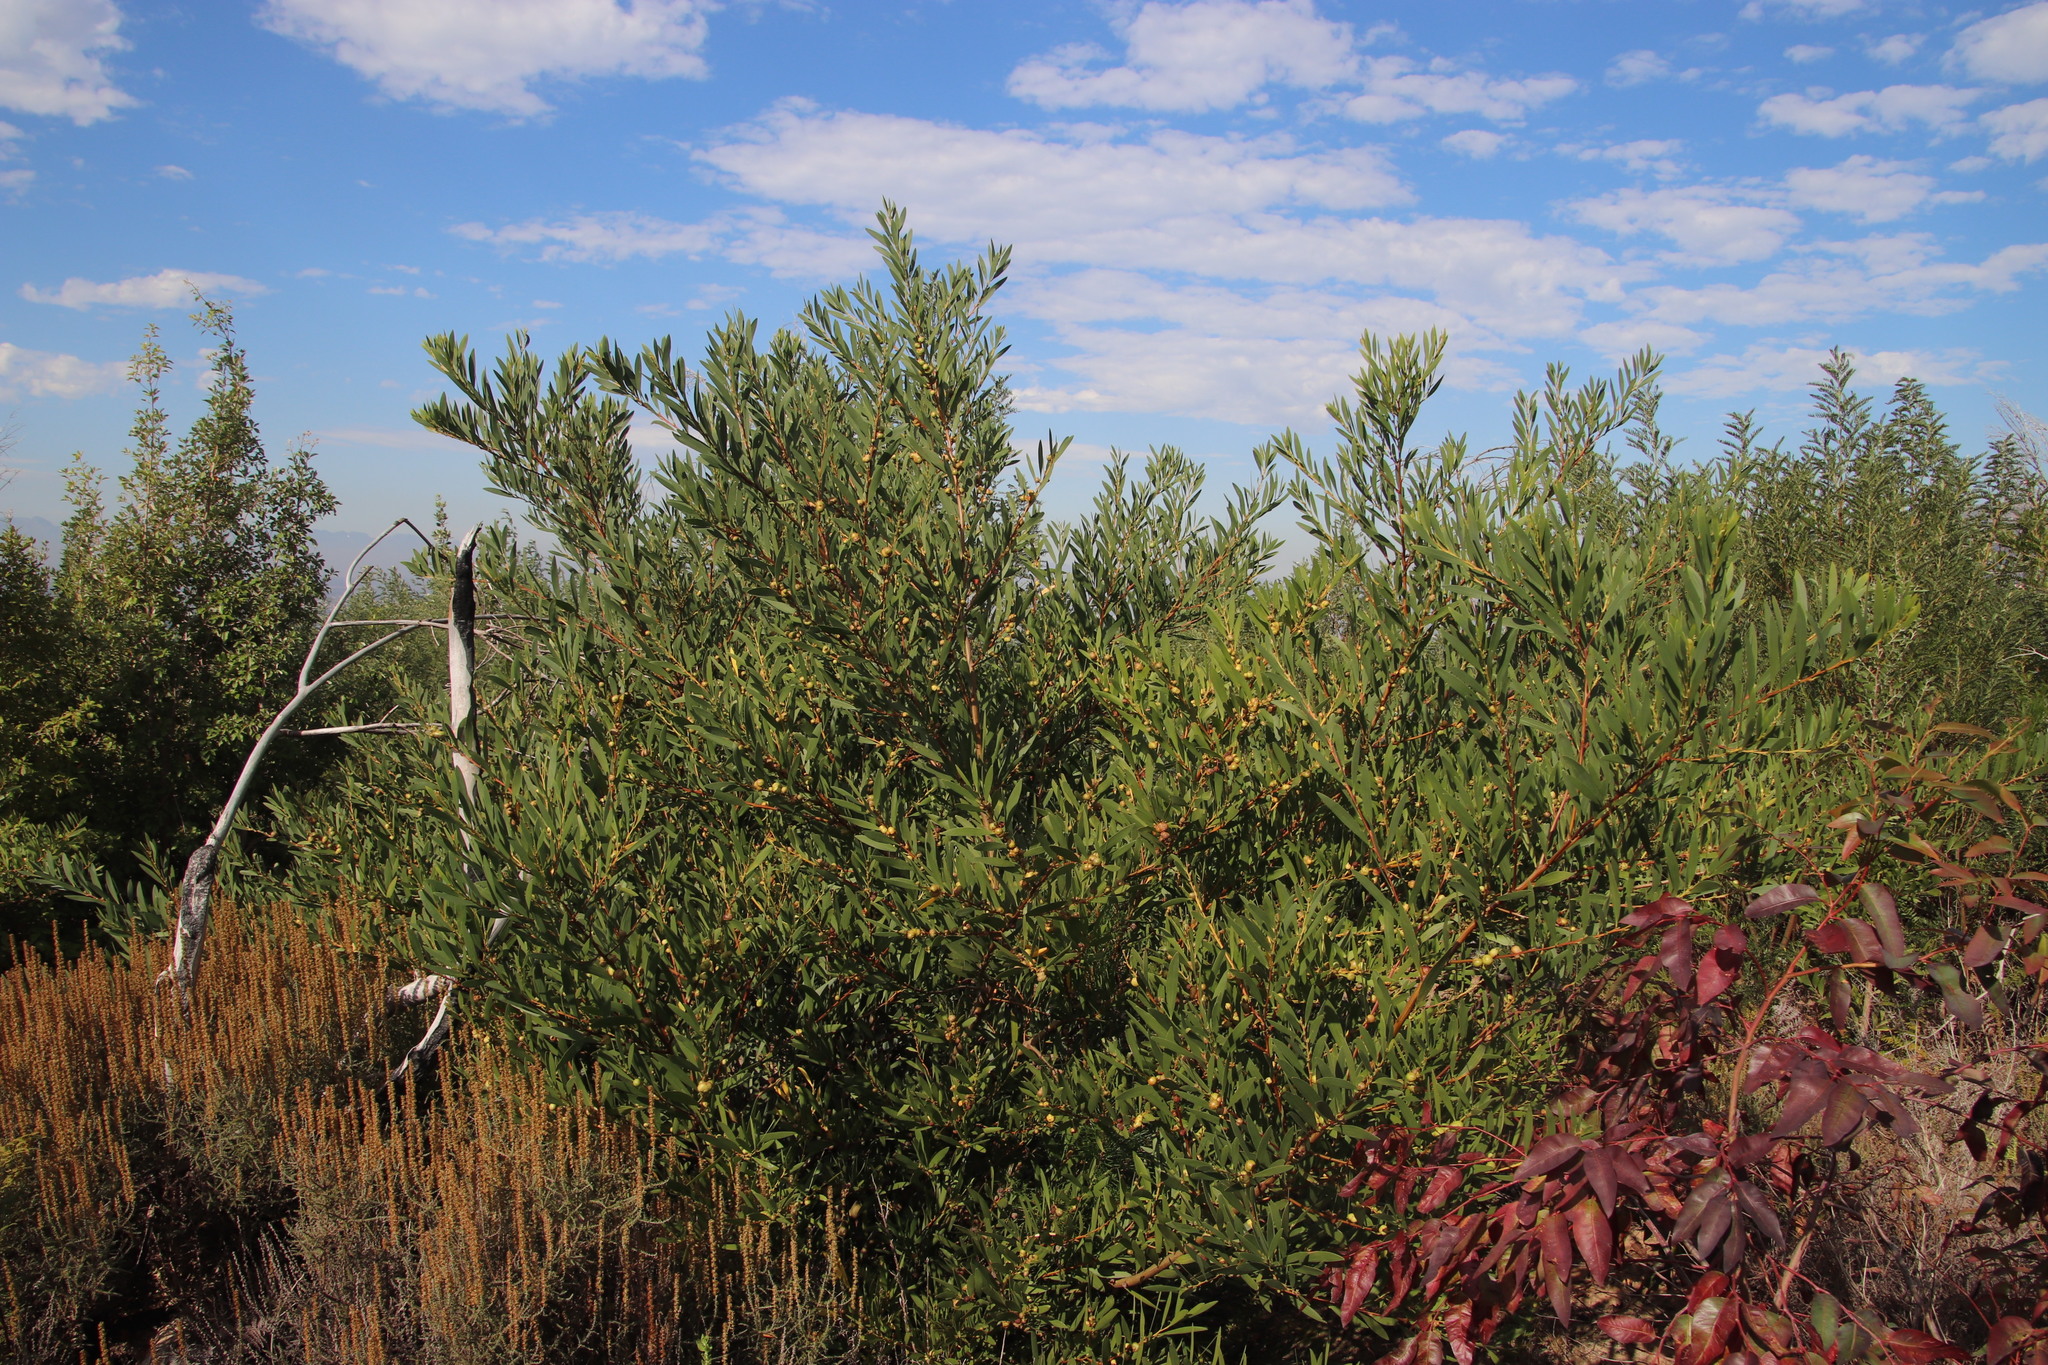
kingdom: Plantae
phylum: Tracheophyta
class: Magnoliopsida
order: Fabales
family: Fabaceae
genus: Acacia
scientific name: Acacia longifolia
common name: Sydney golden wattle
